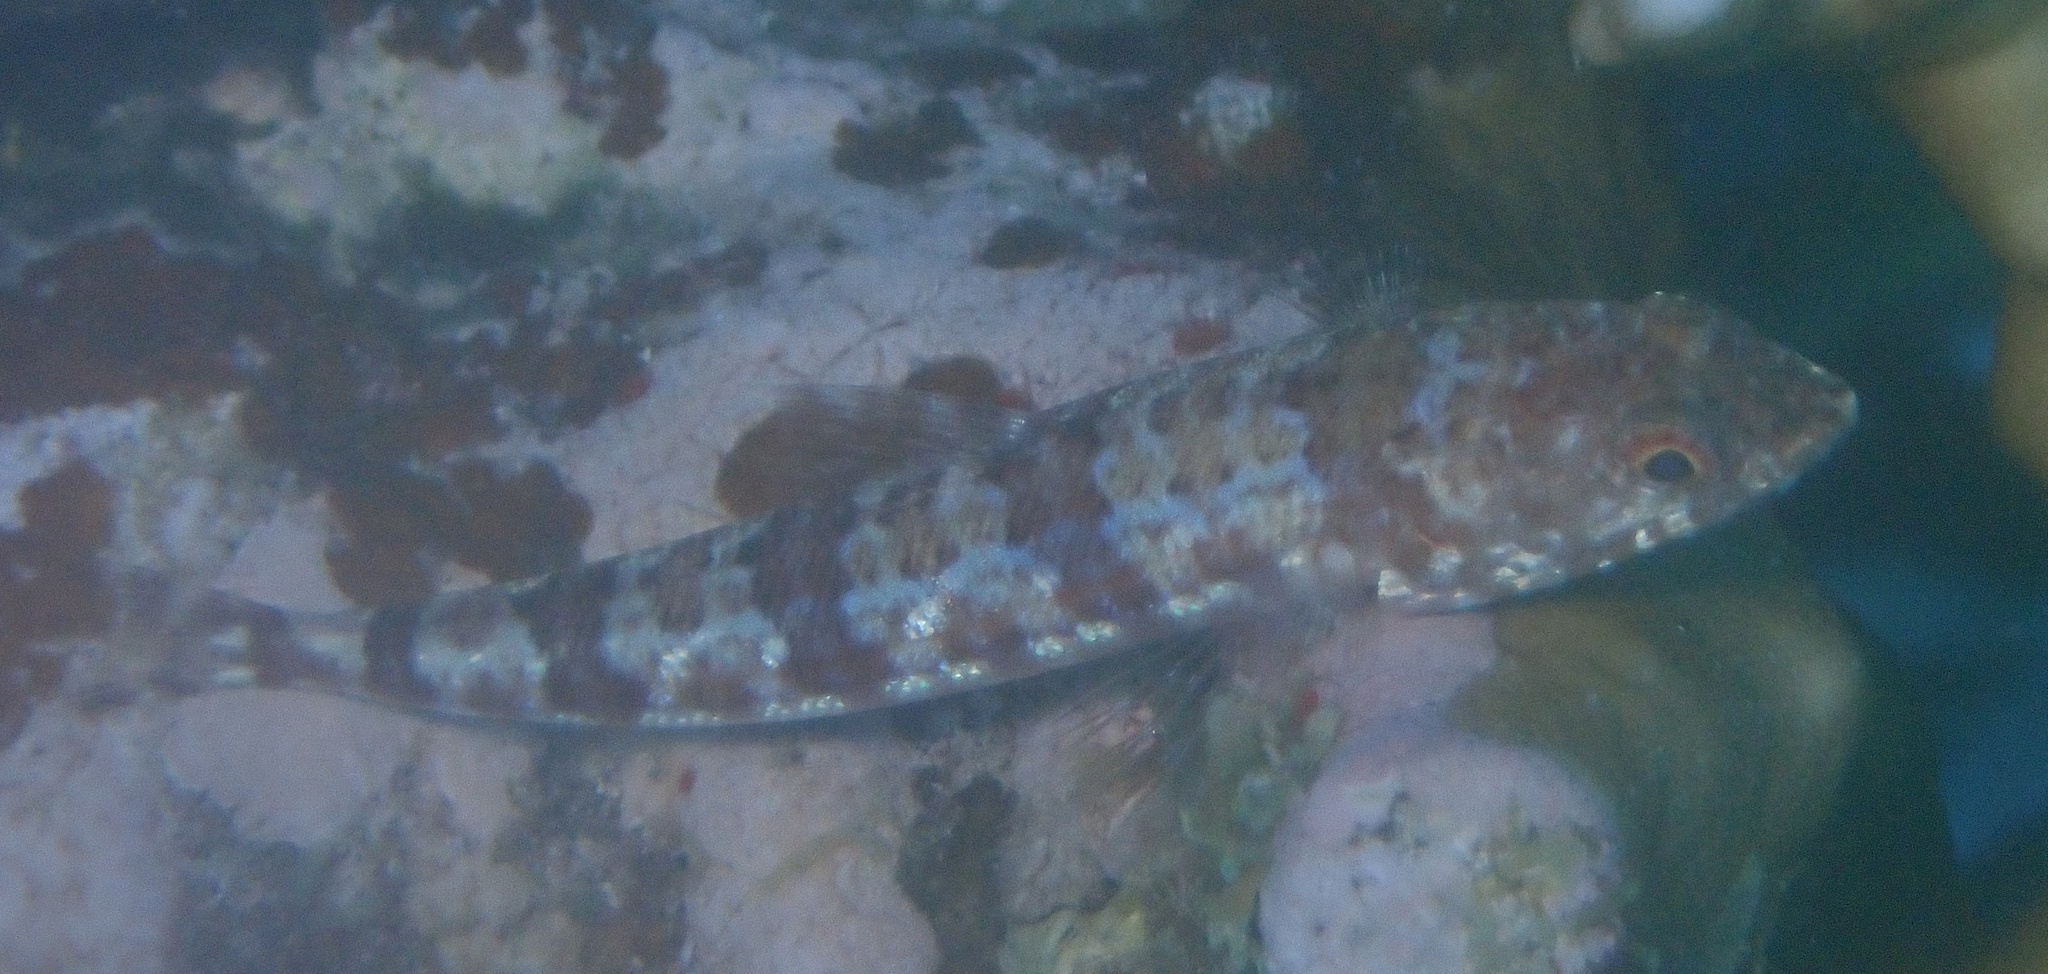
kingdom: Animalia
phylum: Chordata
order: Aulopiformes
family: Synodontidae
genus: Synodus
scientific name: Synodus variegatus
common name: Variegated lizardfish
